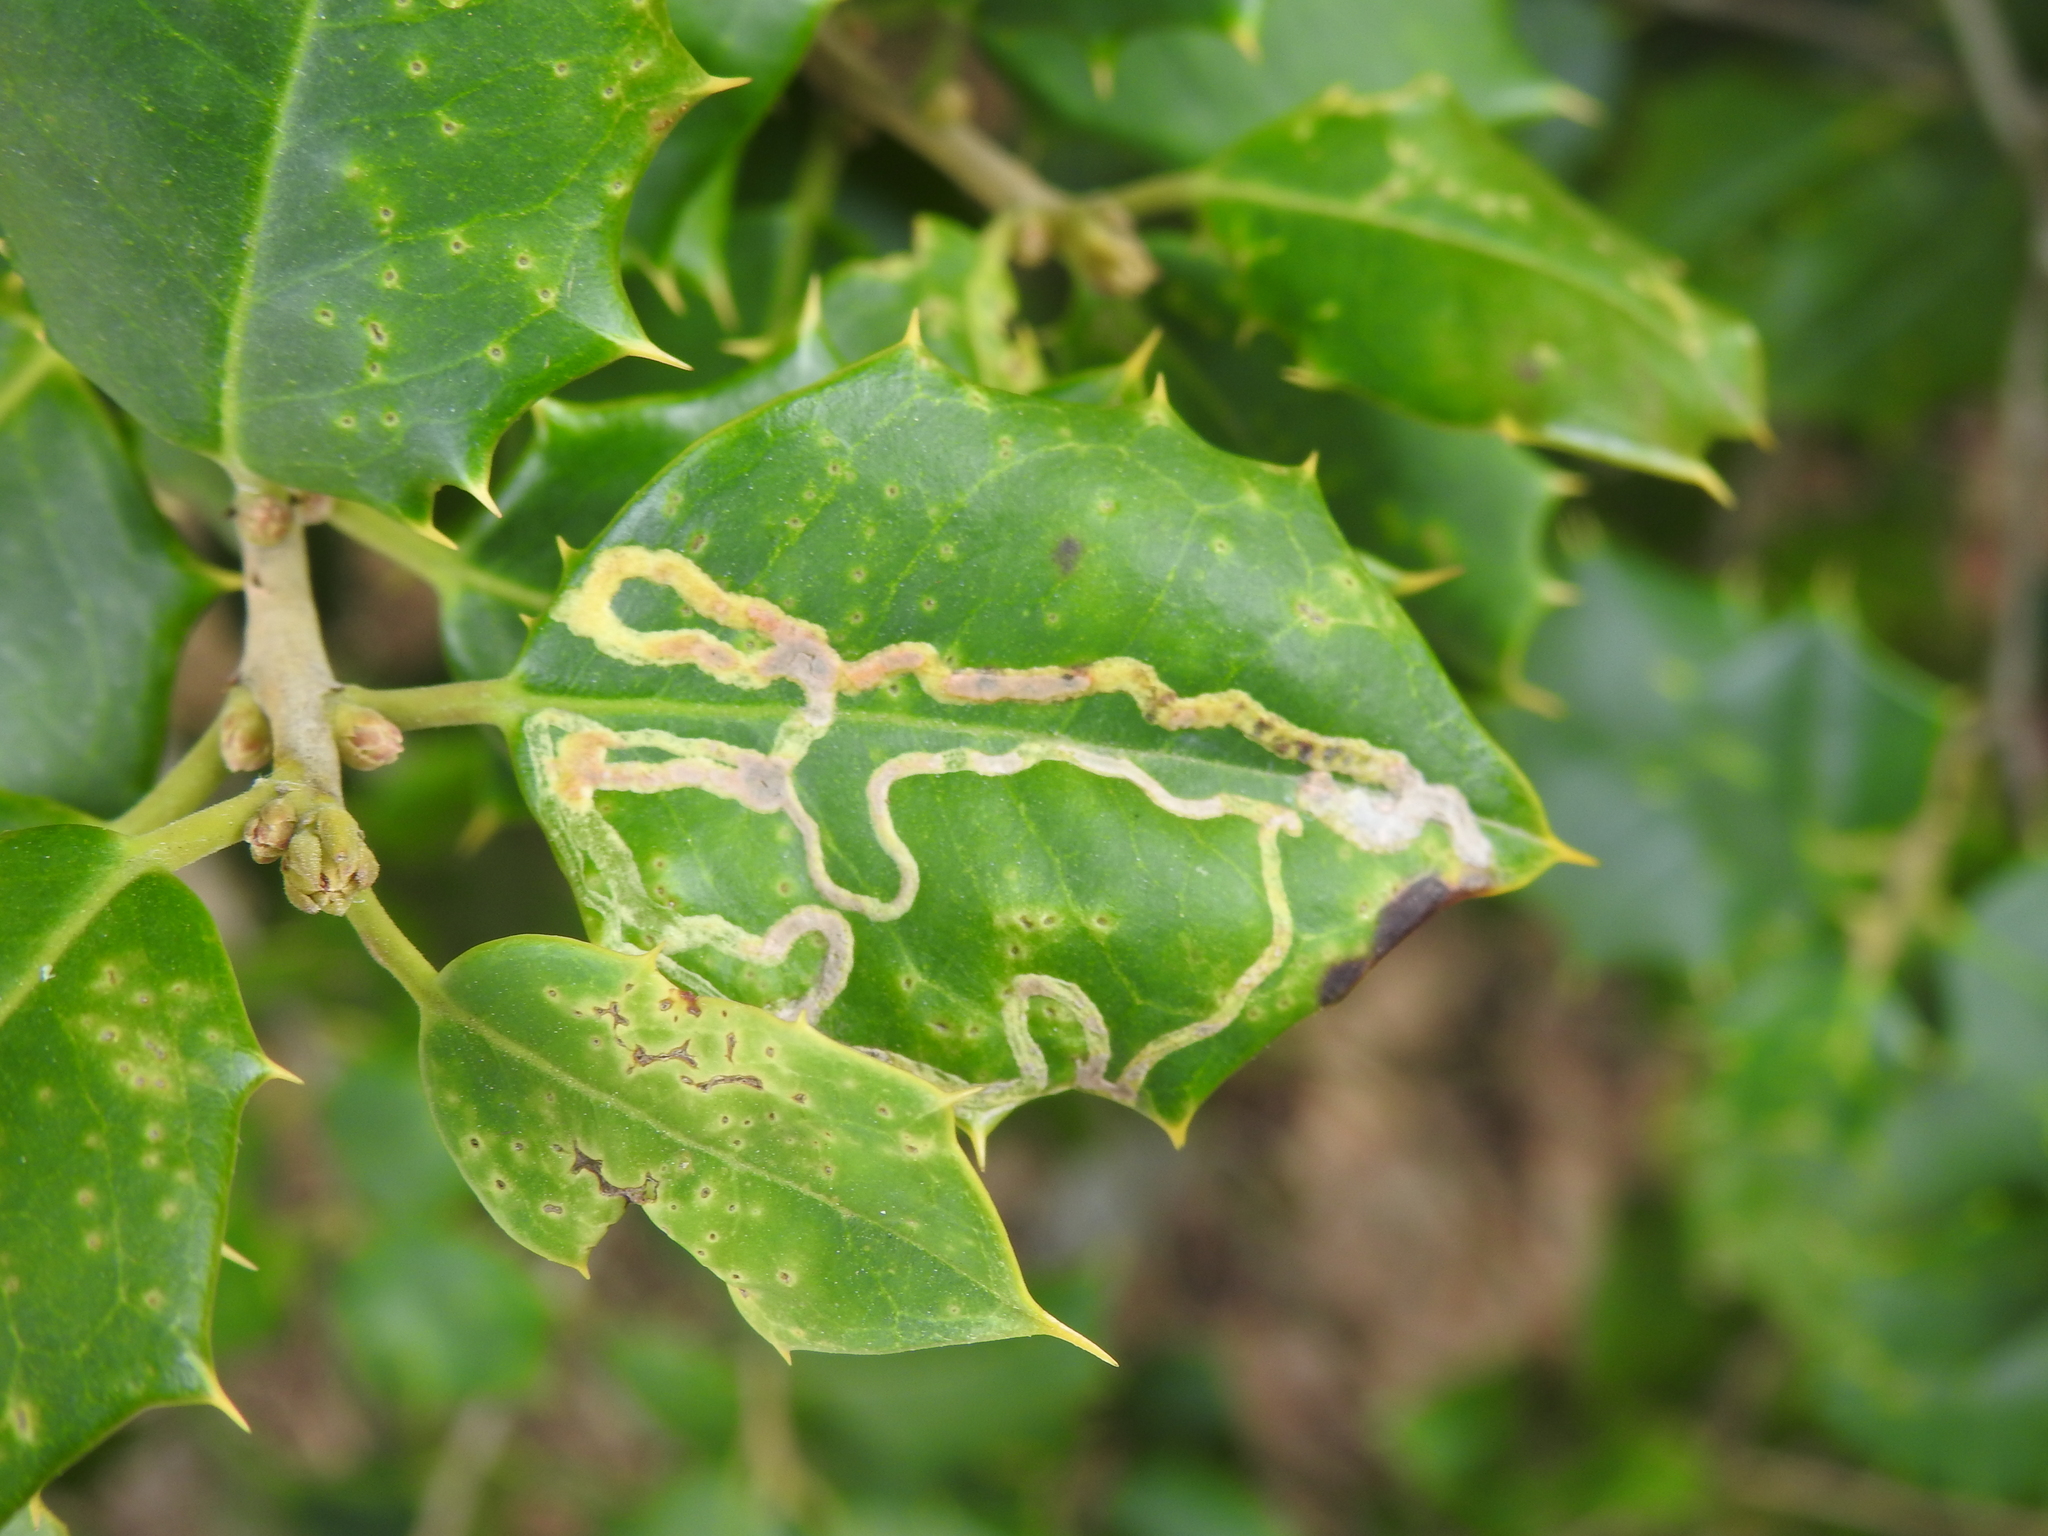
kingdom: Animalia
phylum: Arthropoda
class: Insecta
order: Diptera
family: Agromyzidae
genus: Phytomyza
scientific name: Phytomyza opacae
